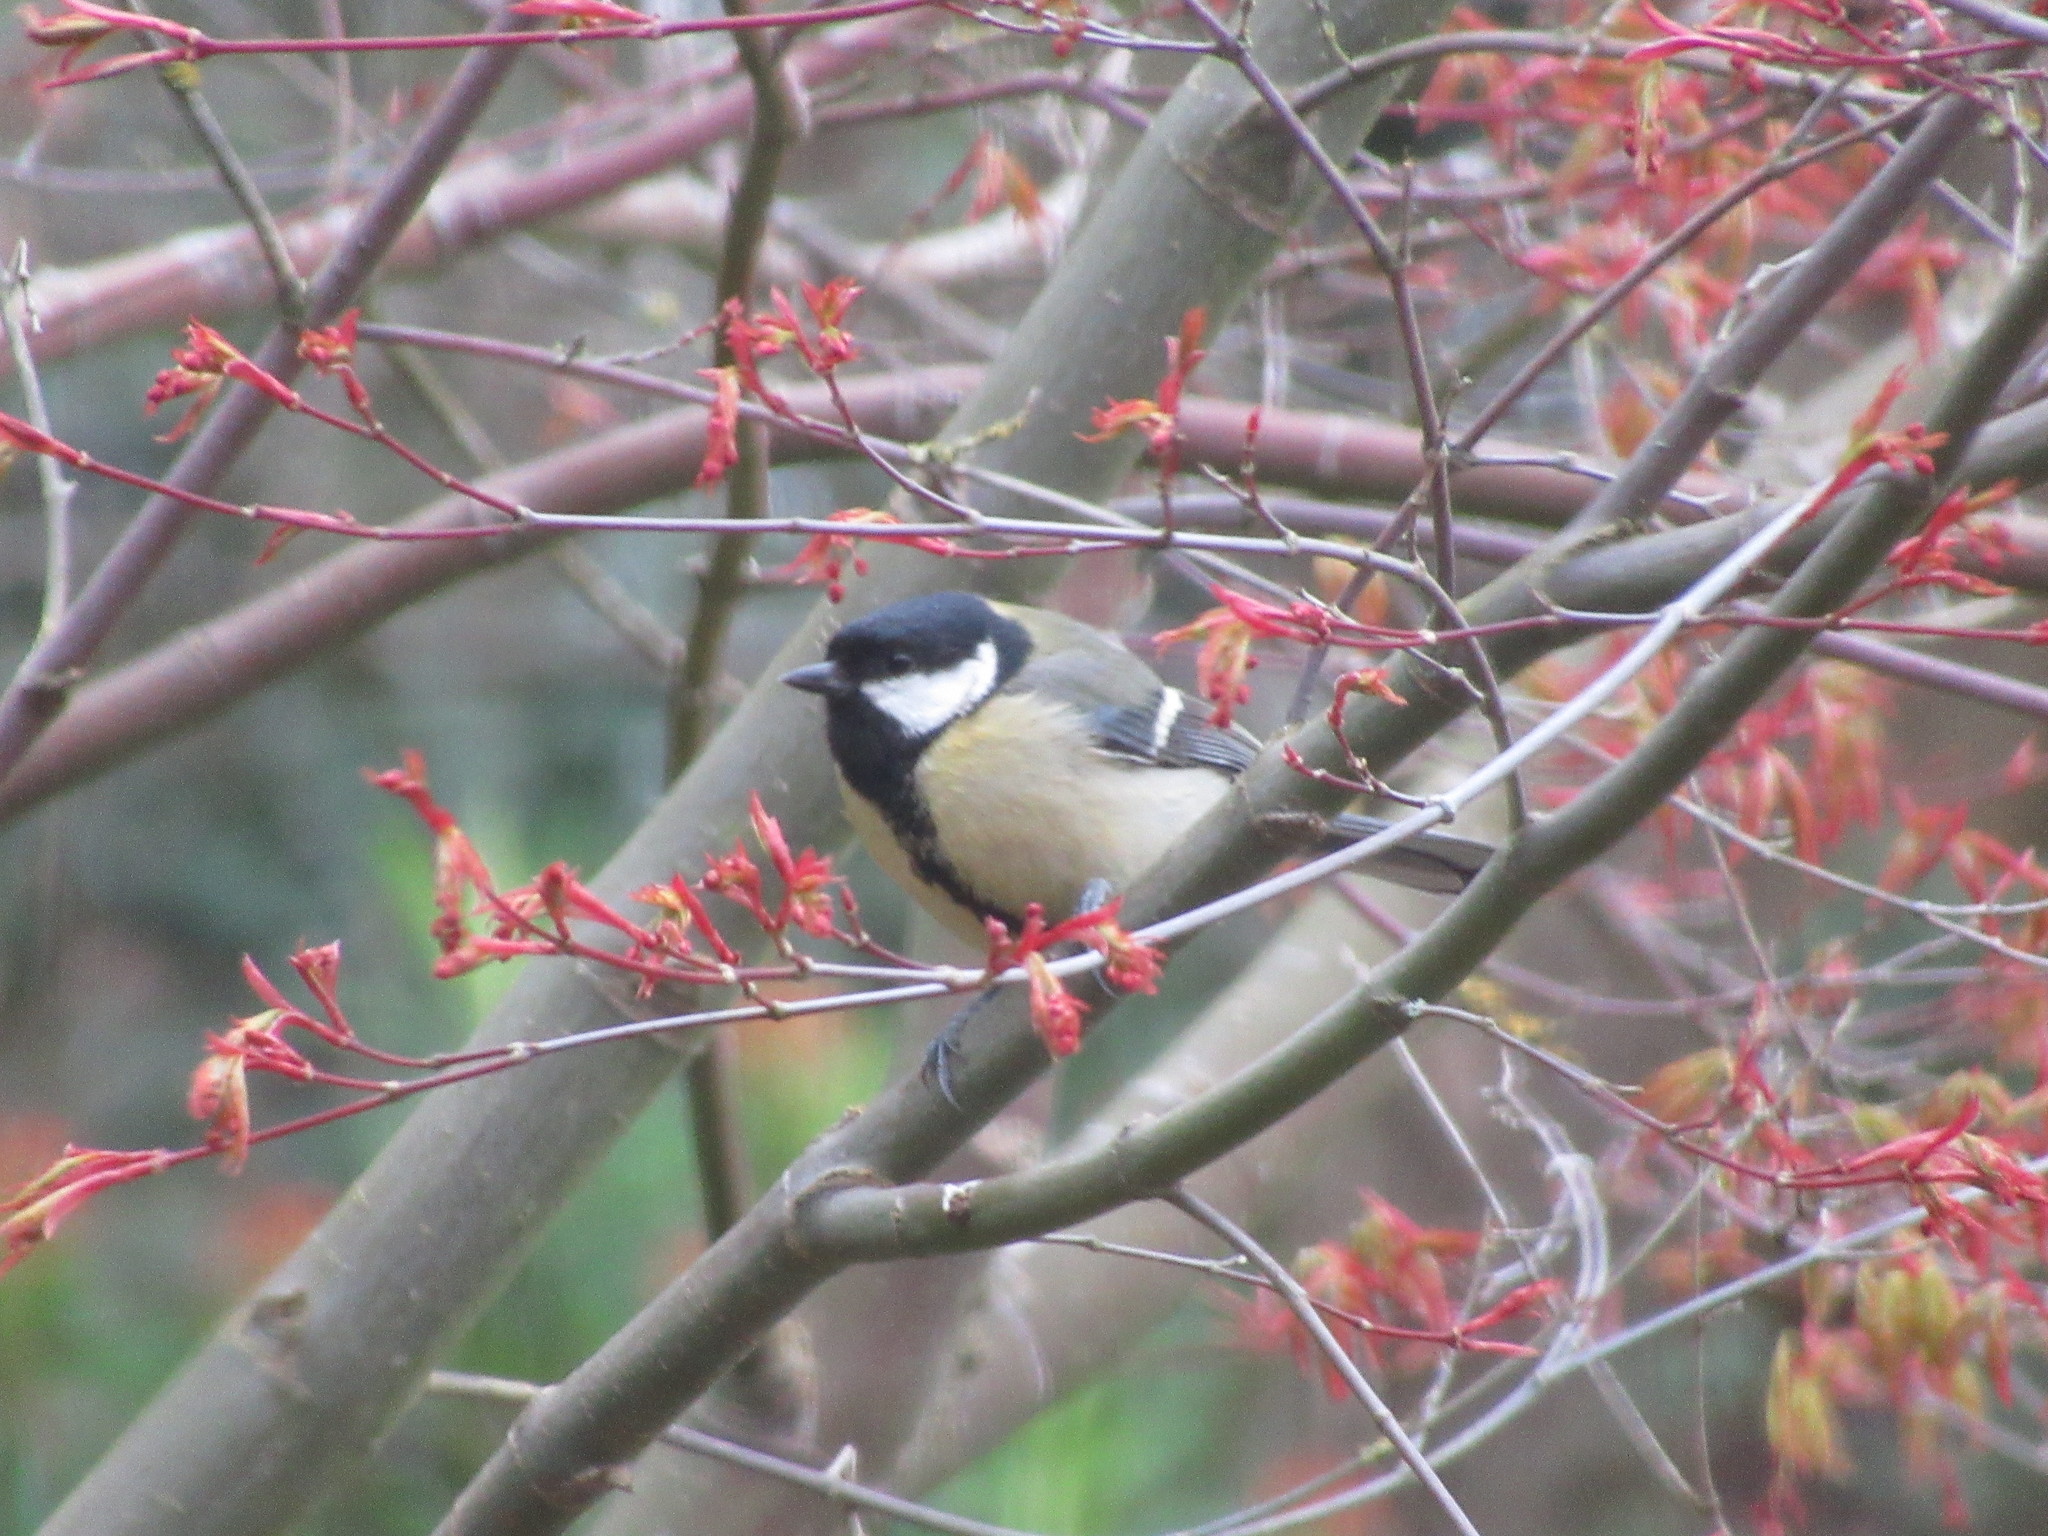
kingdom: Animalia
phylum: Chordata
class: Aves
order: Passeriformes
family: Paridae
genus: Parus
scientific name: Parus major
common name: Great tit
